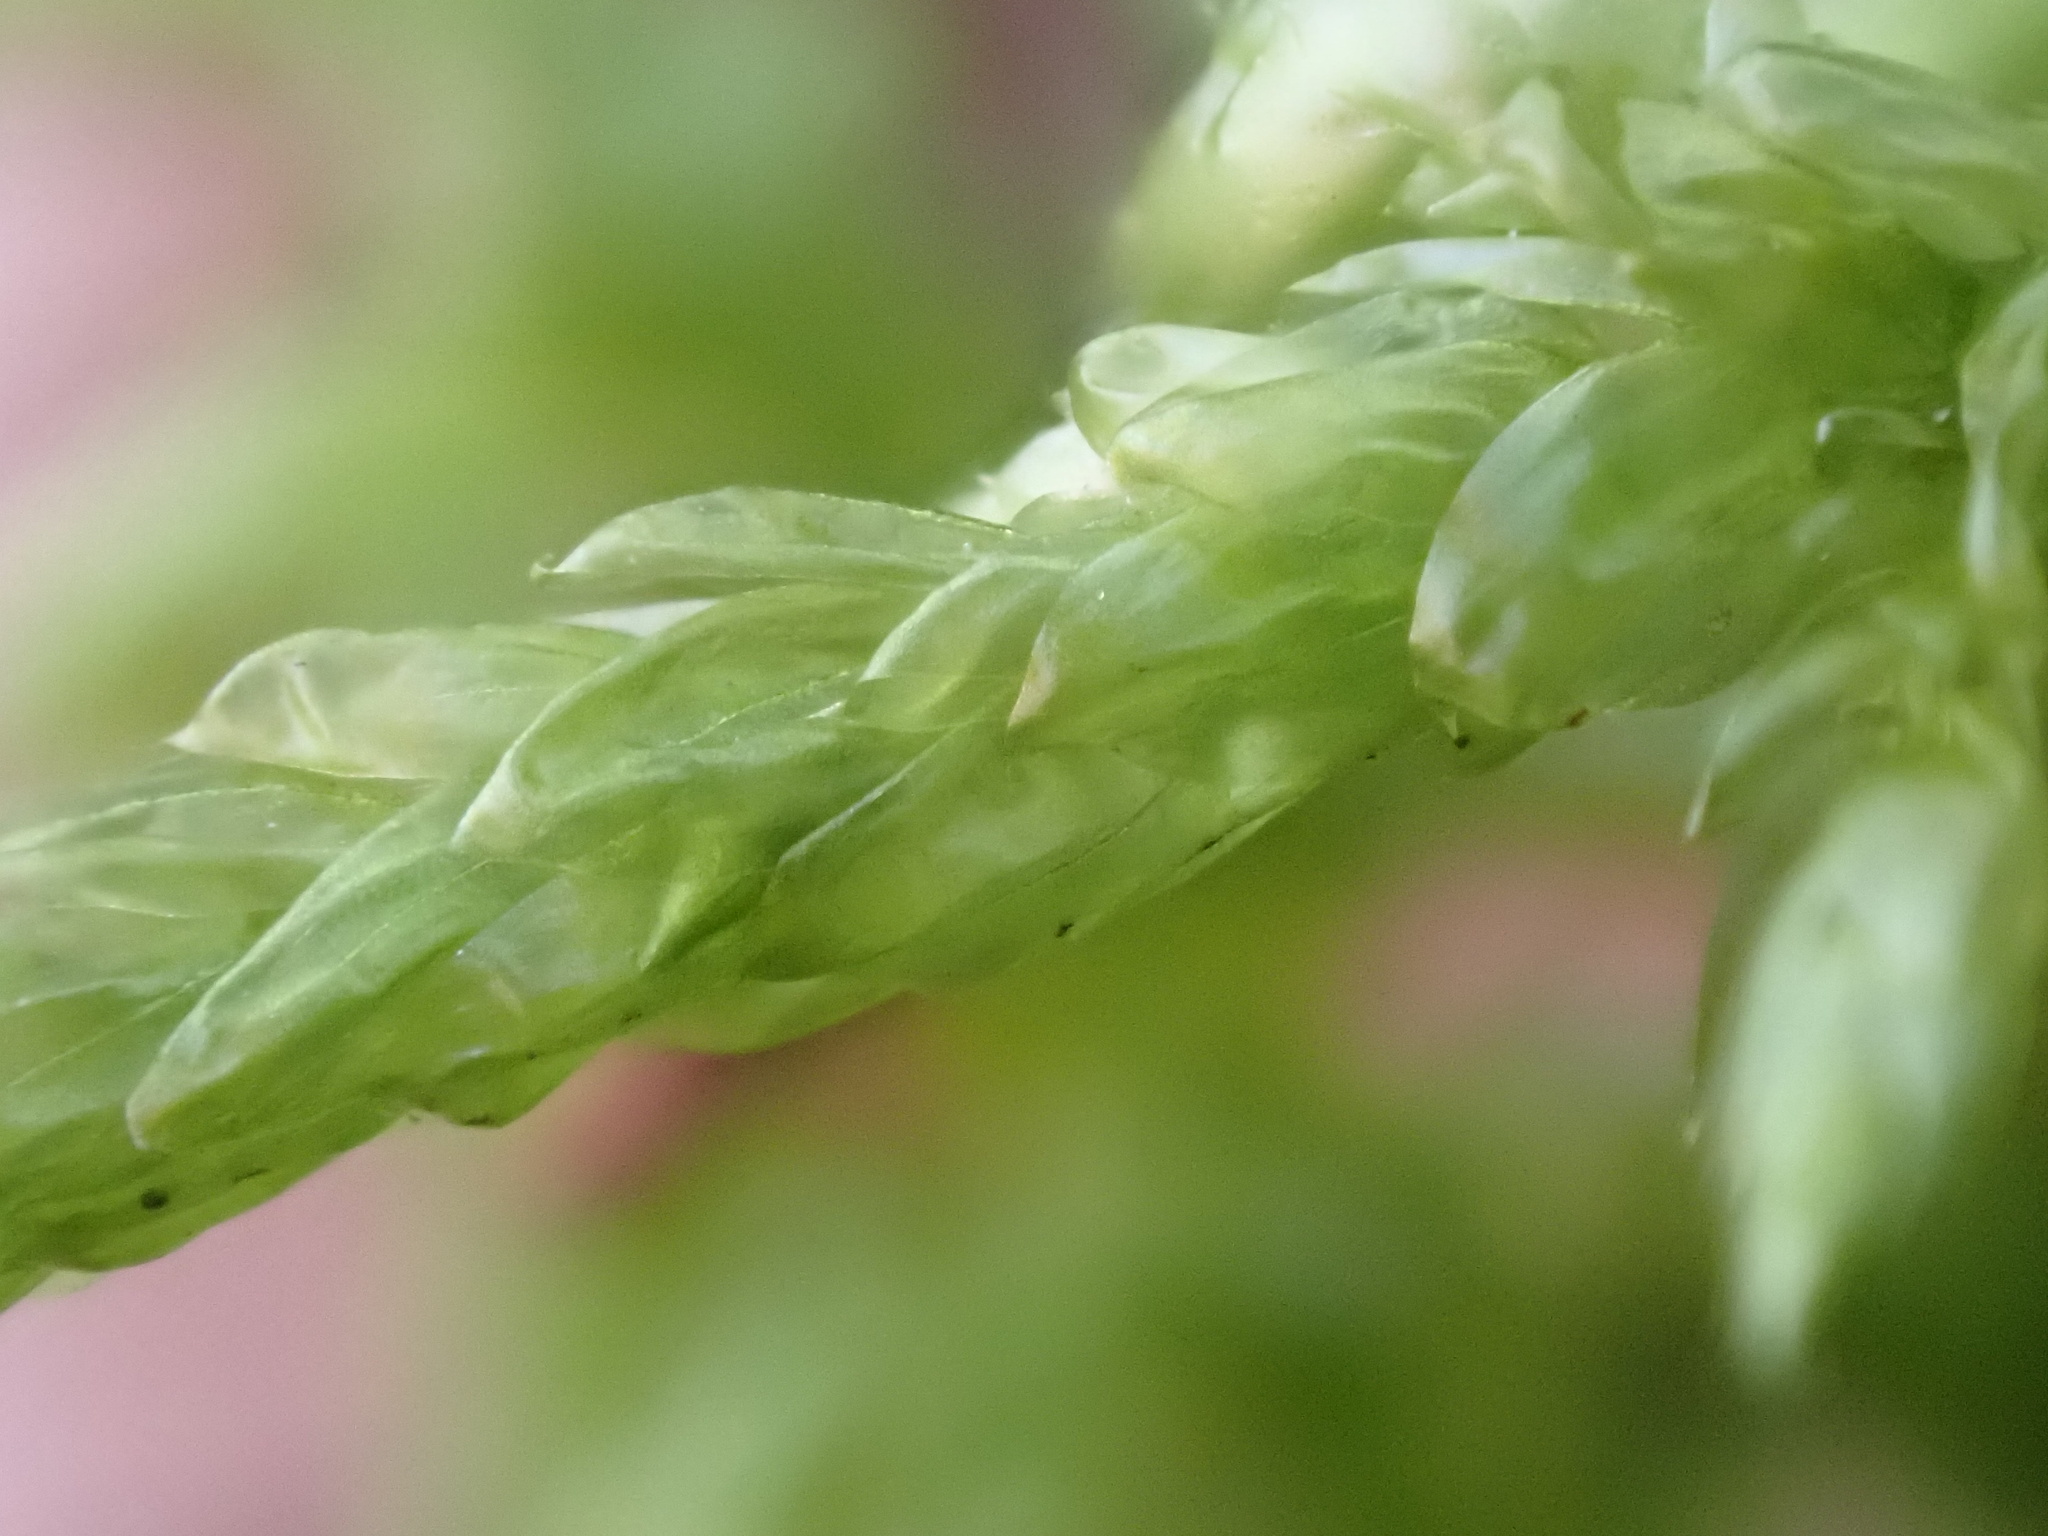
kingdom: Plantae
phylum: Bryophyta
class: Bryopsida
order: Hypnales
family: Brachytheciaceae
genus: Pseudoscleropodium
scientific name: Pseudoscleropodium purum
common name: Neat feather-moss
